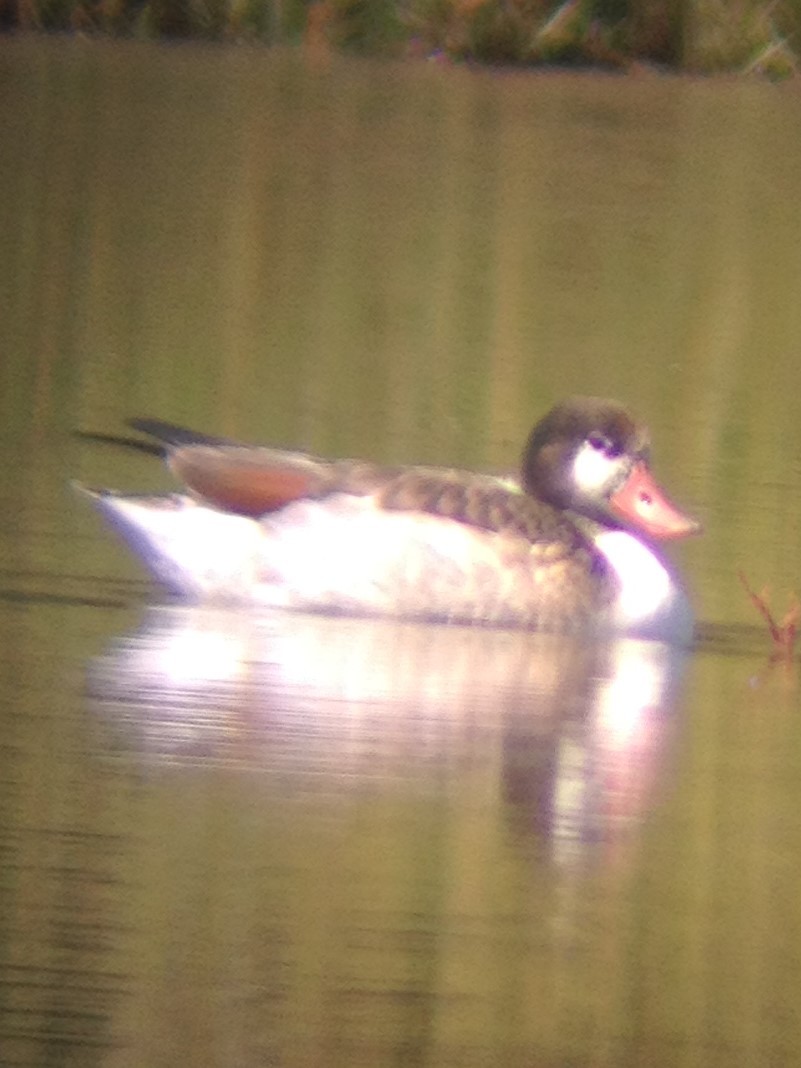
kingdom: Animalia
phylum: Chordata
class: Aves
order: Anseriformes
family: Anatidae
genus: Tadorna
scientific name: Tadorna tadorna
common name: Common shelduck
